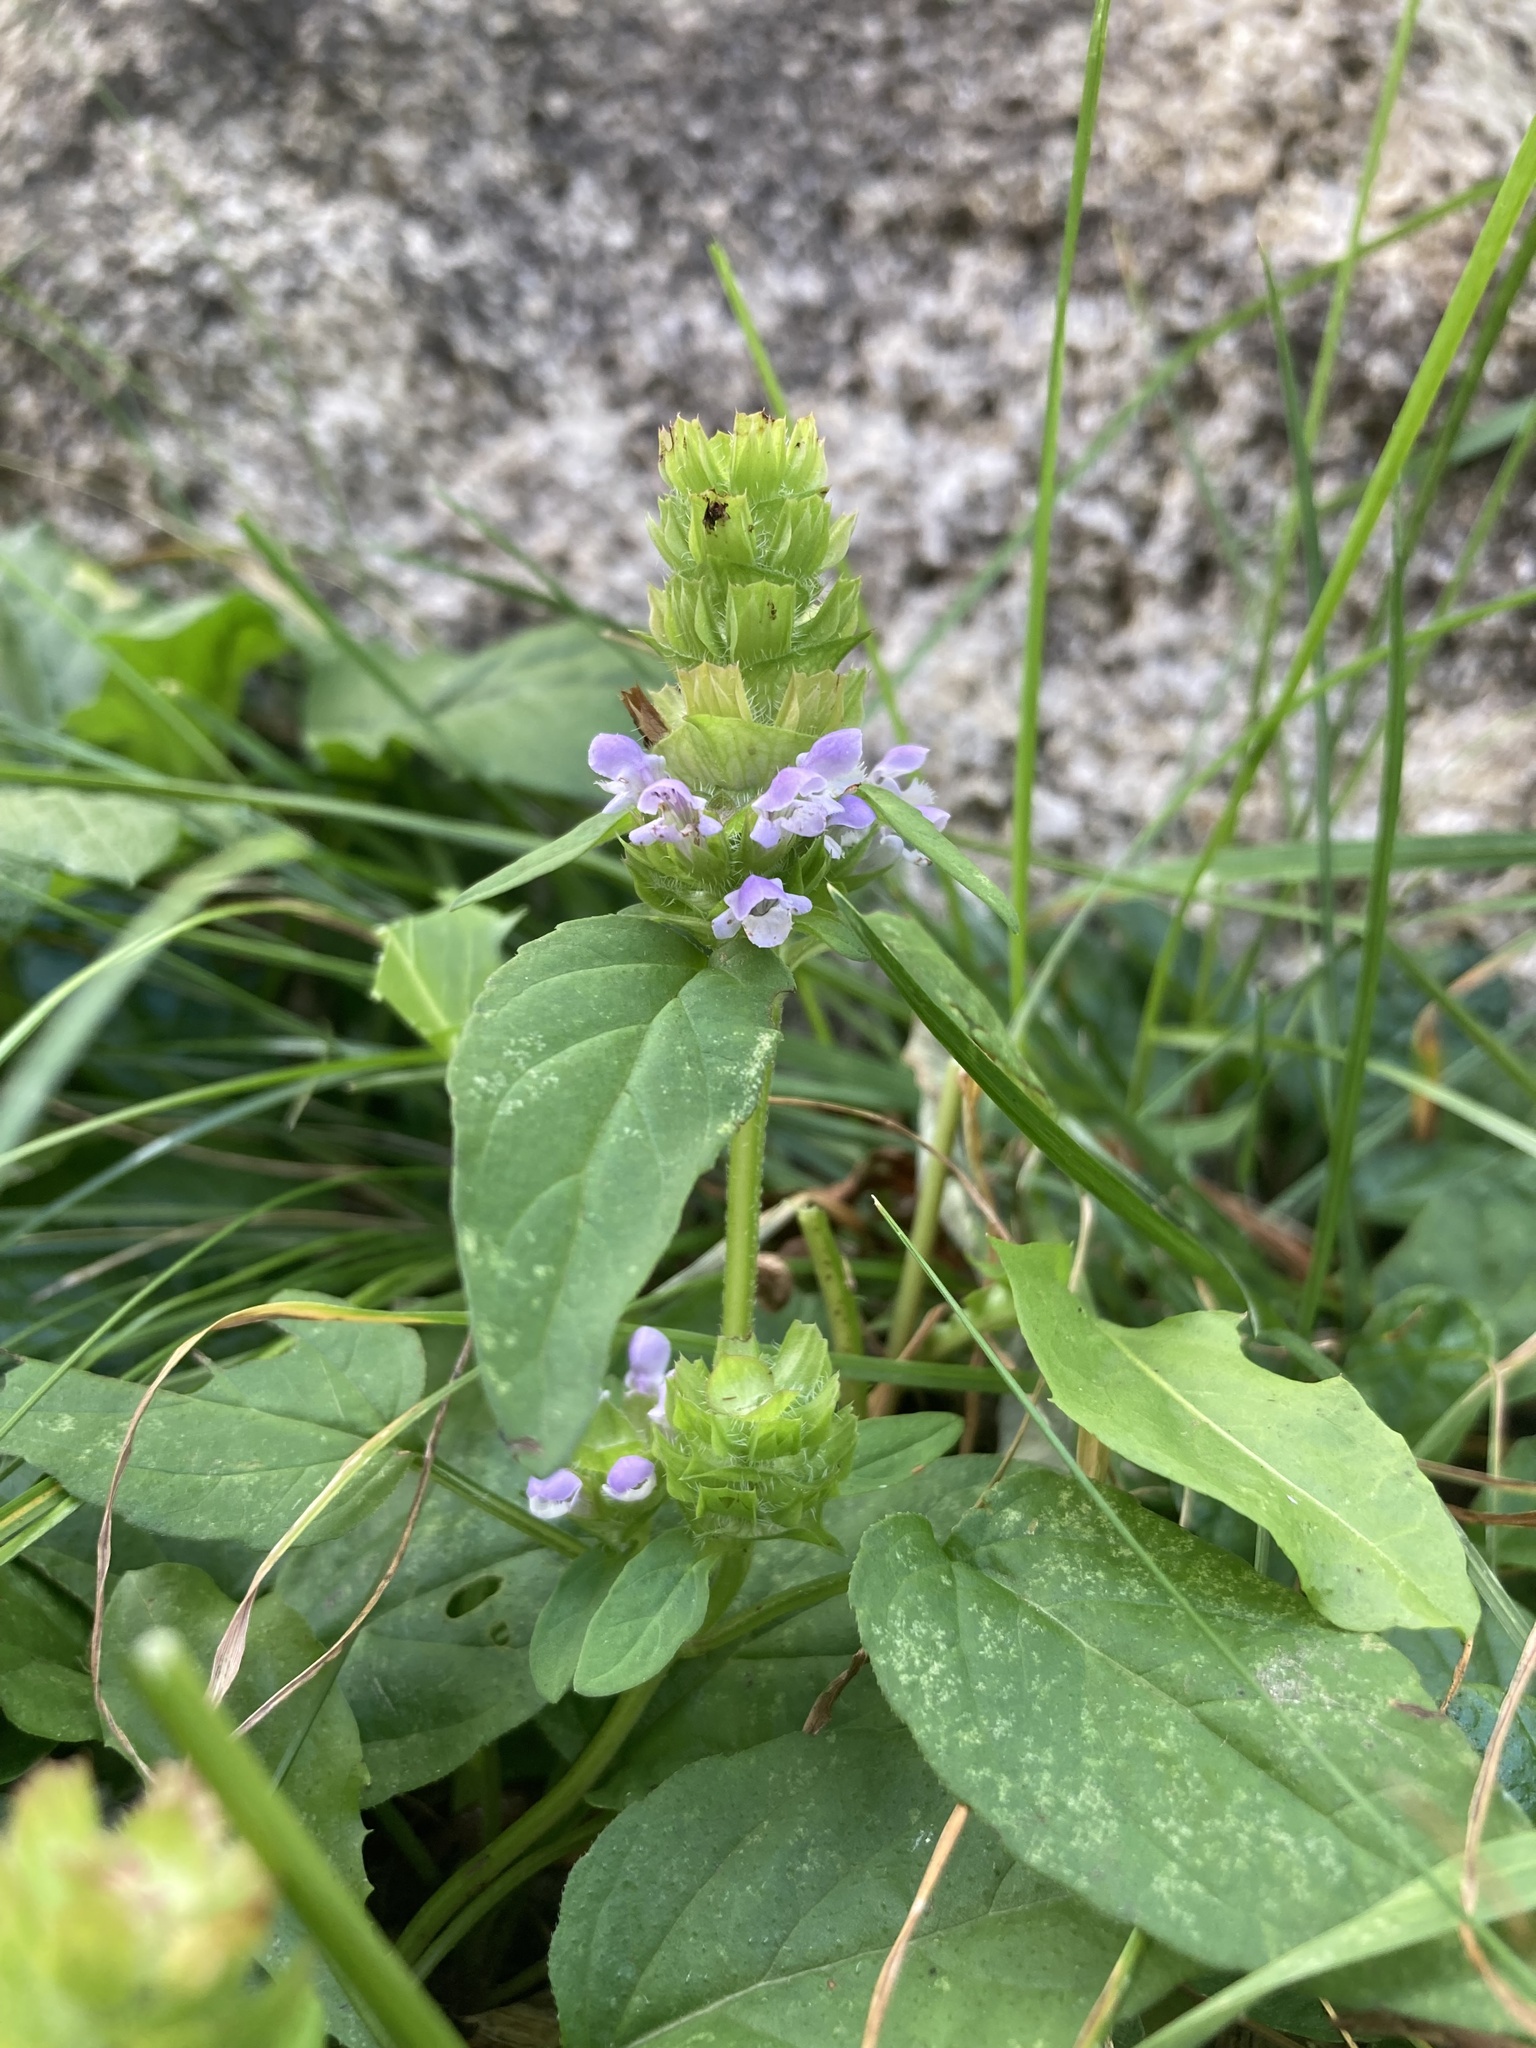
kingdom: Plantae
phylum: Tracheophyta
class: Magnoliopsida
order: Lamiales
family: Lamiaceae
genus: Prunella
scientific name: Prunella vulgaris
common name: Heal-all
